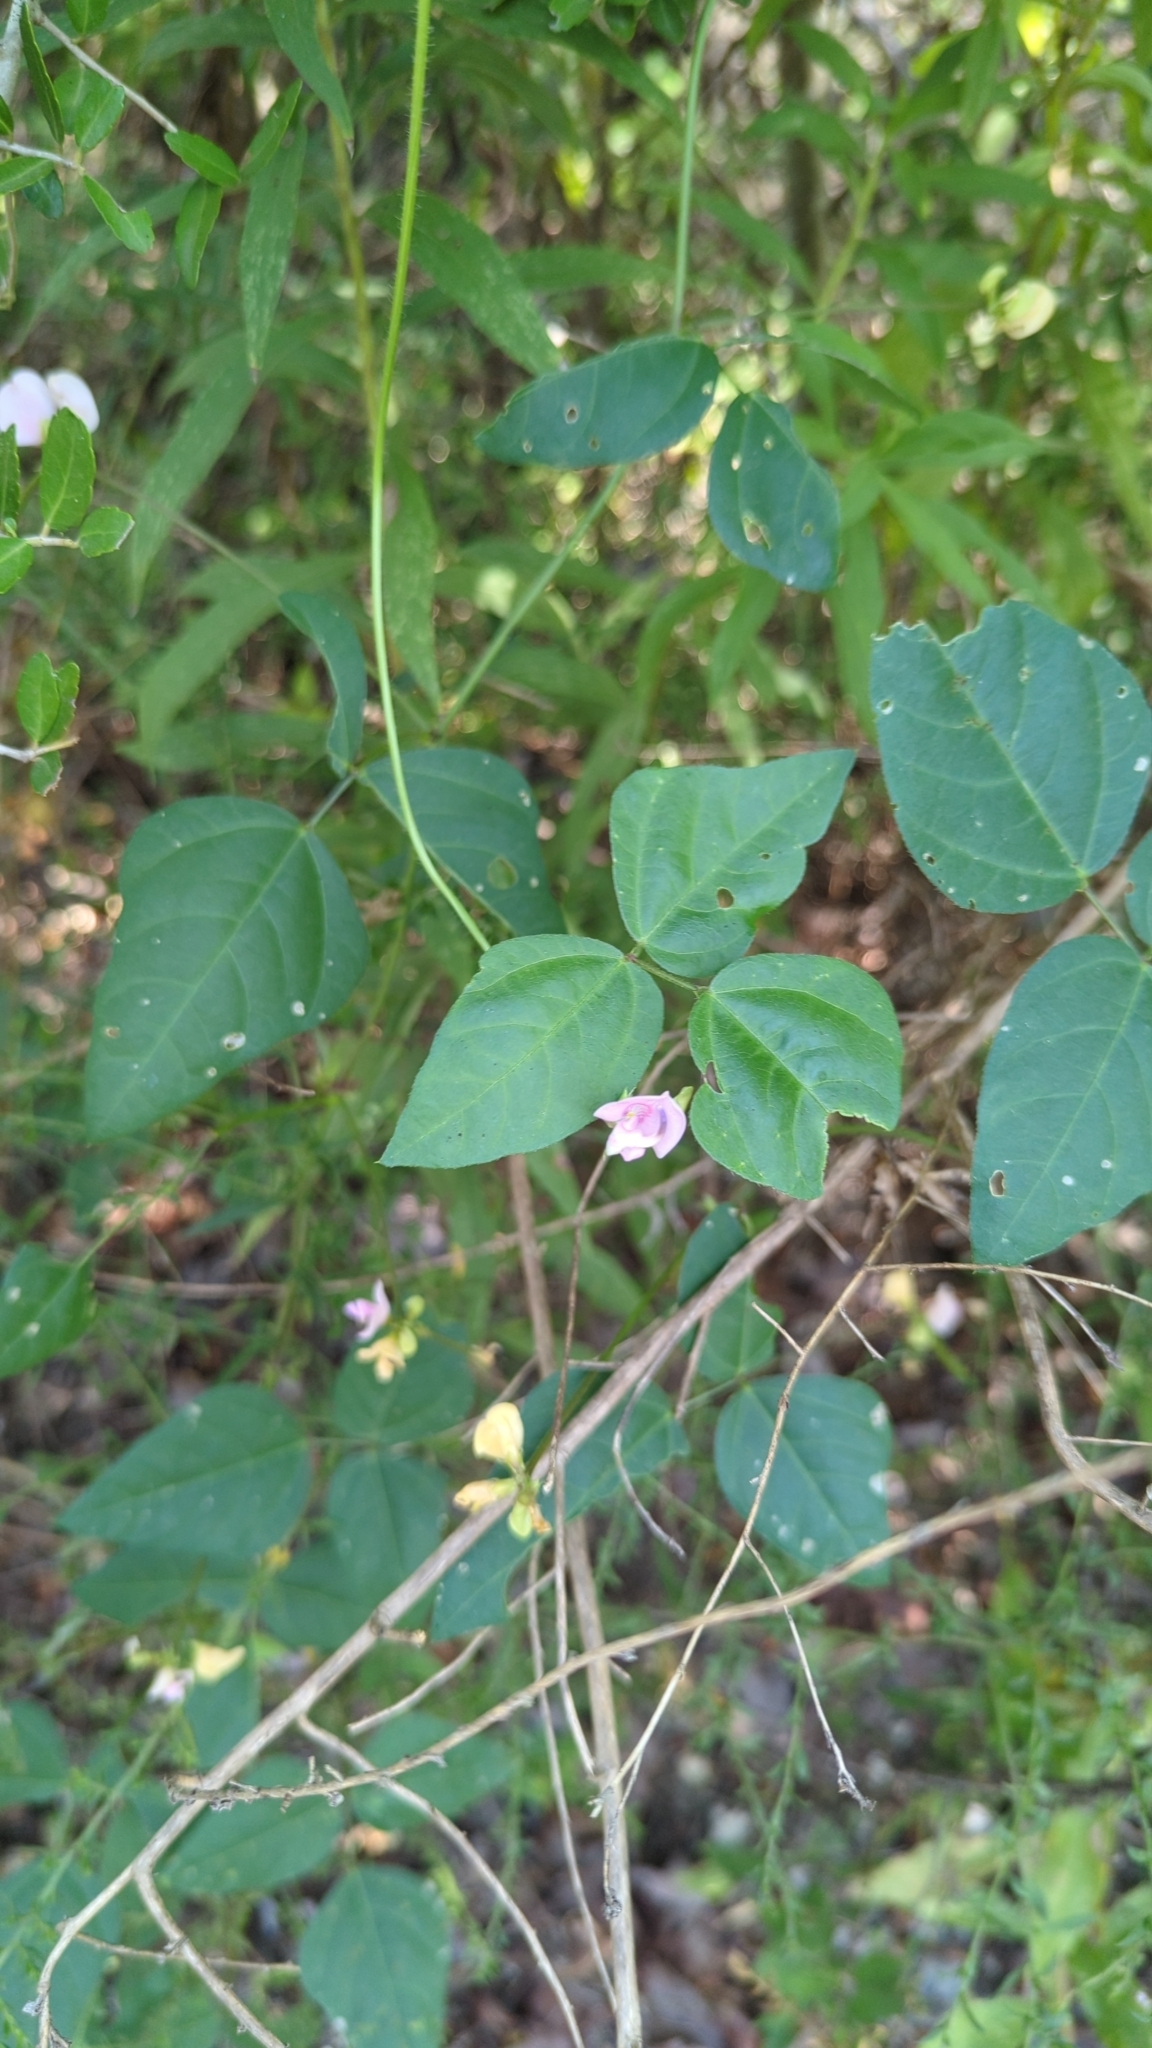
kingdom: Plantae
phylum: Tracheophyta
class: Magnoliopsida
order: Fabales
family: Fabaceae
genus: Strophostyles
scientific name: Strophostyles helvola
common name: Trailing wild bean
